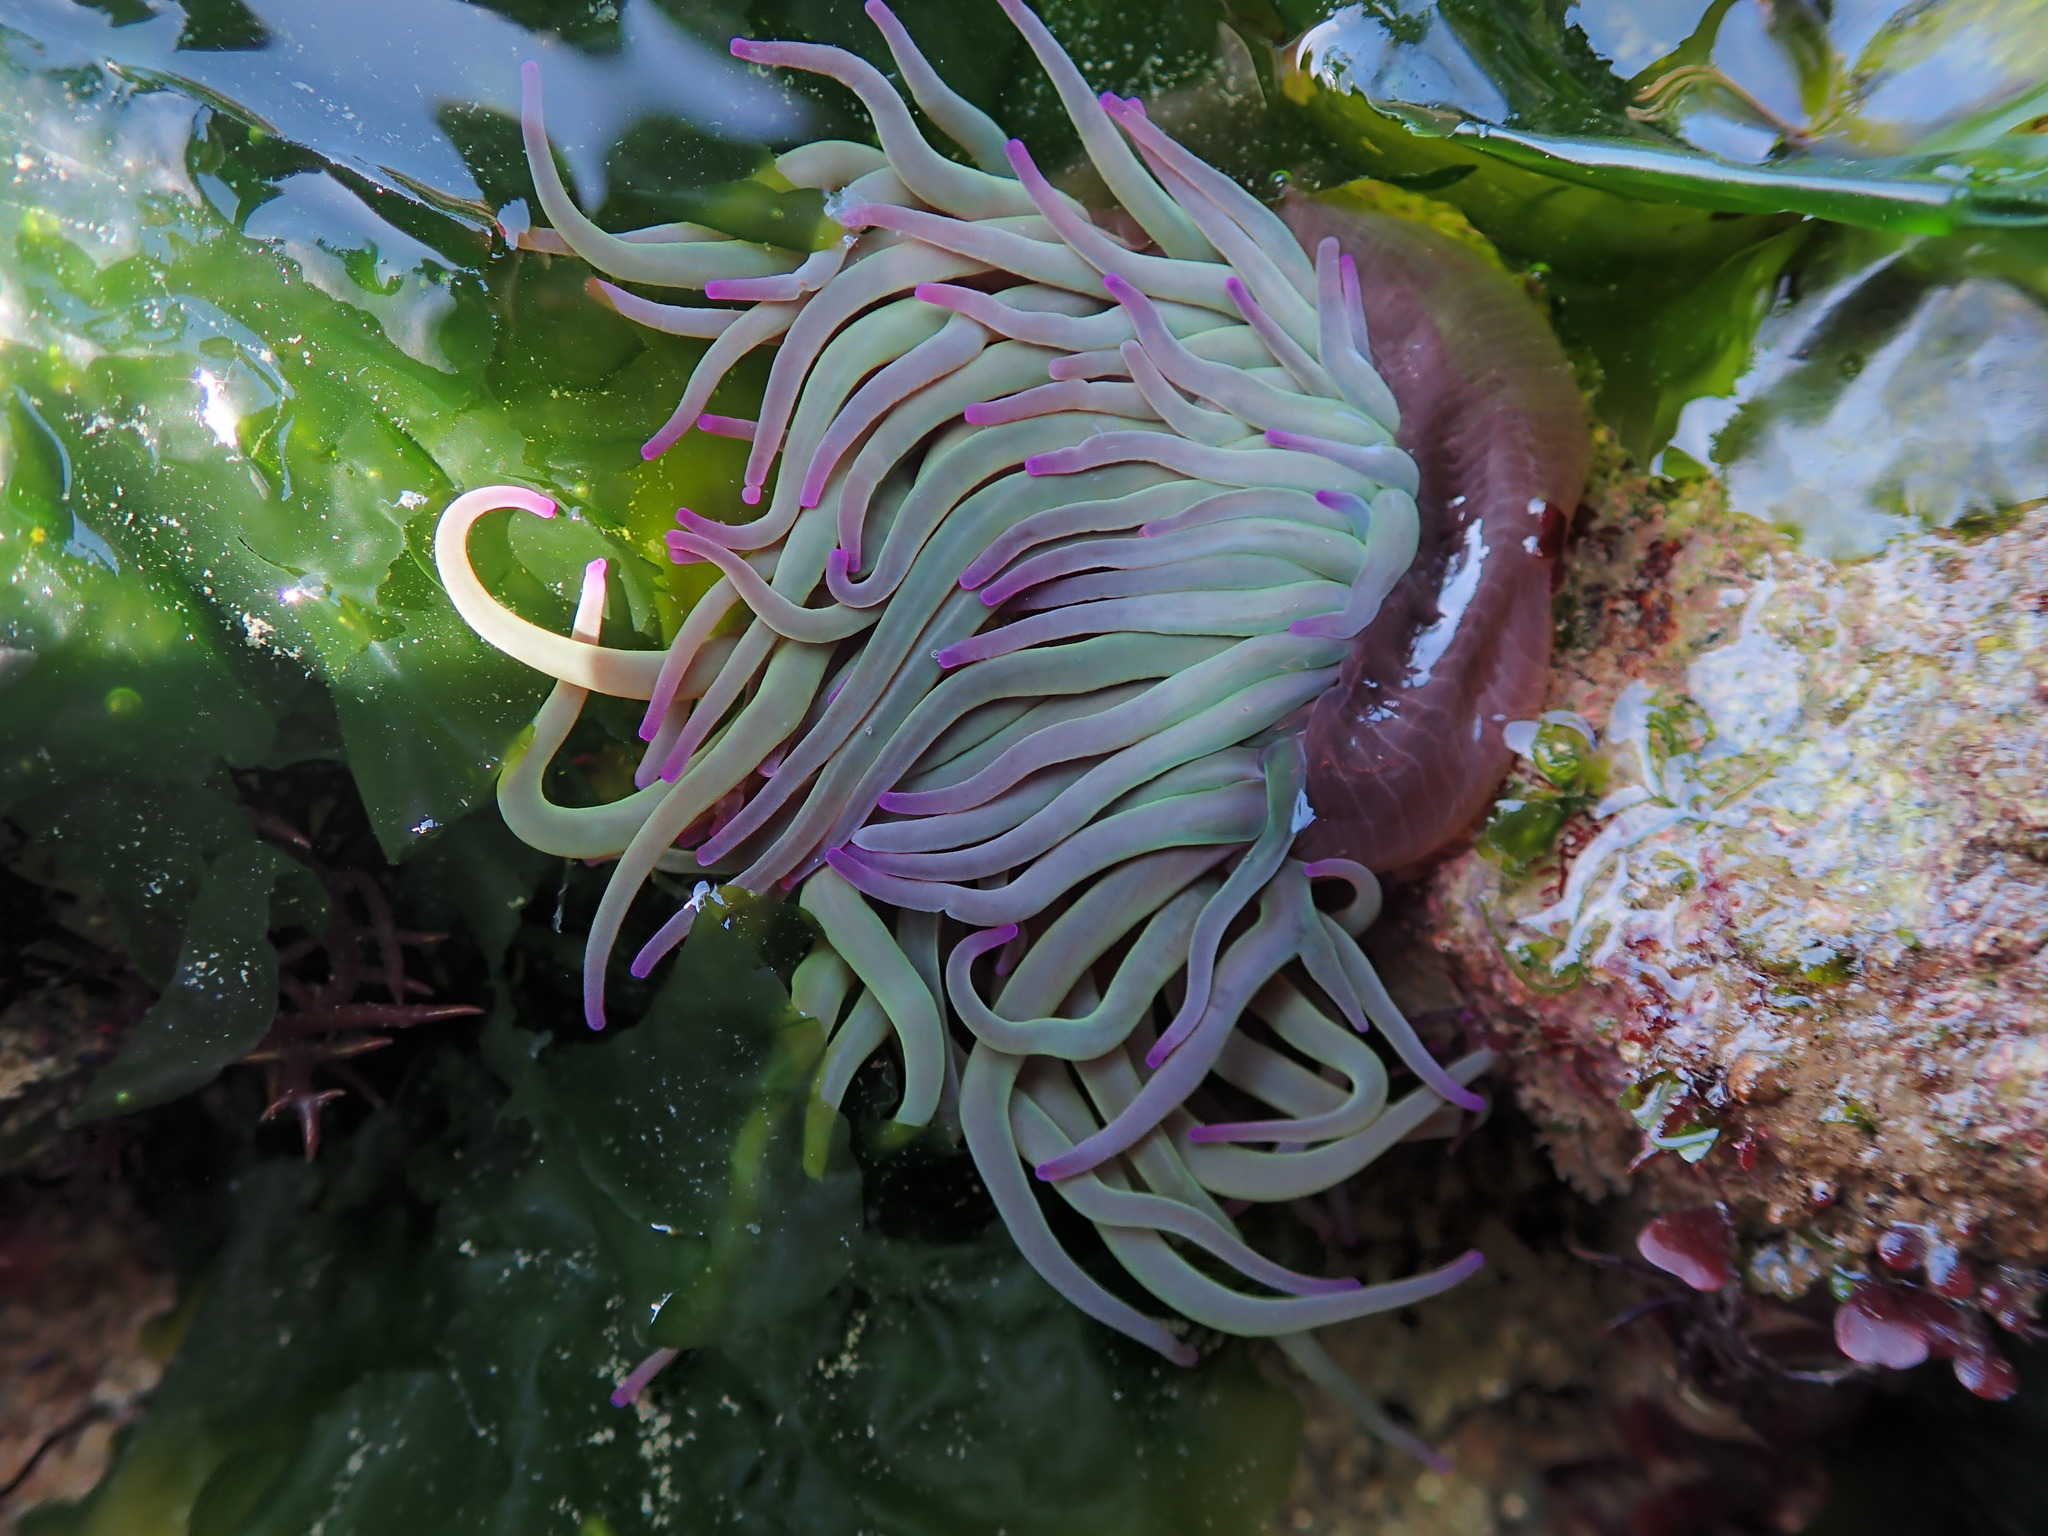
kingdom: Animalia
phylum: Cnidaria
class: Anthozoa
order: Actiniaria
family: Actiniidae
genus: Anemonia
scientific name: Anemonia viridis
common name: Snakelocks anemone
